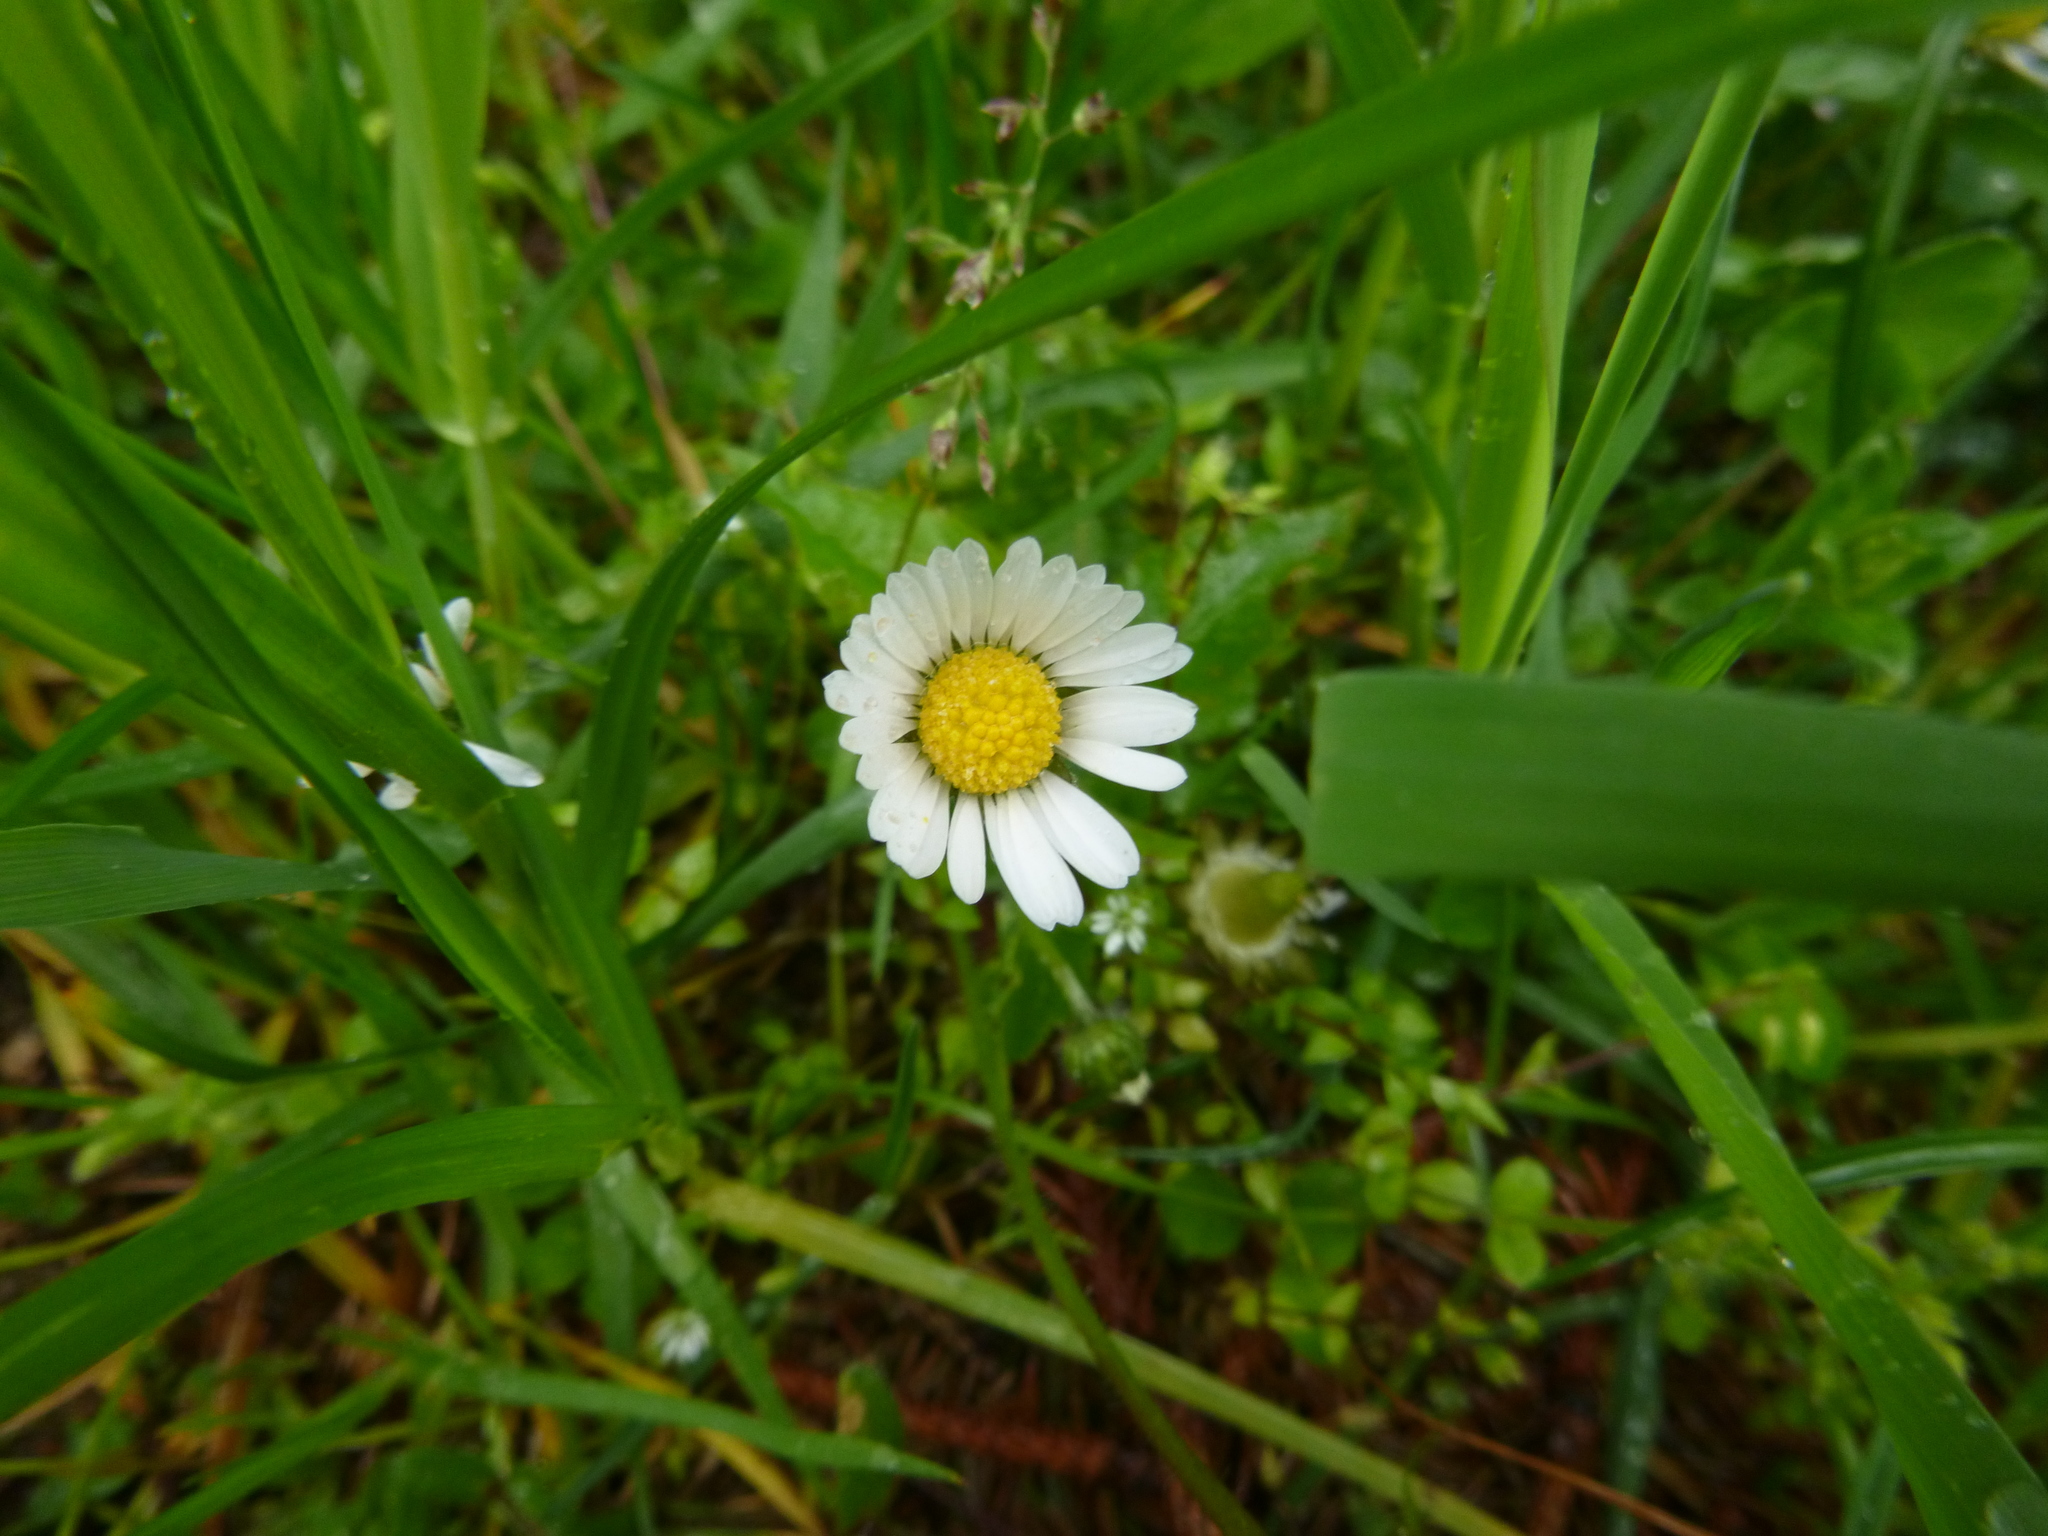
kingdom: Plantae
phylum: Tracheophyta
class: Magnoliopsida
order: Asterales
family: Asteraceae
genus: Bellis
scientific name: Bellis perennis
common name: Lawndaisy
